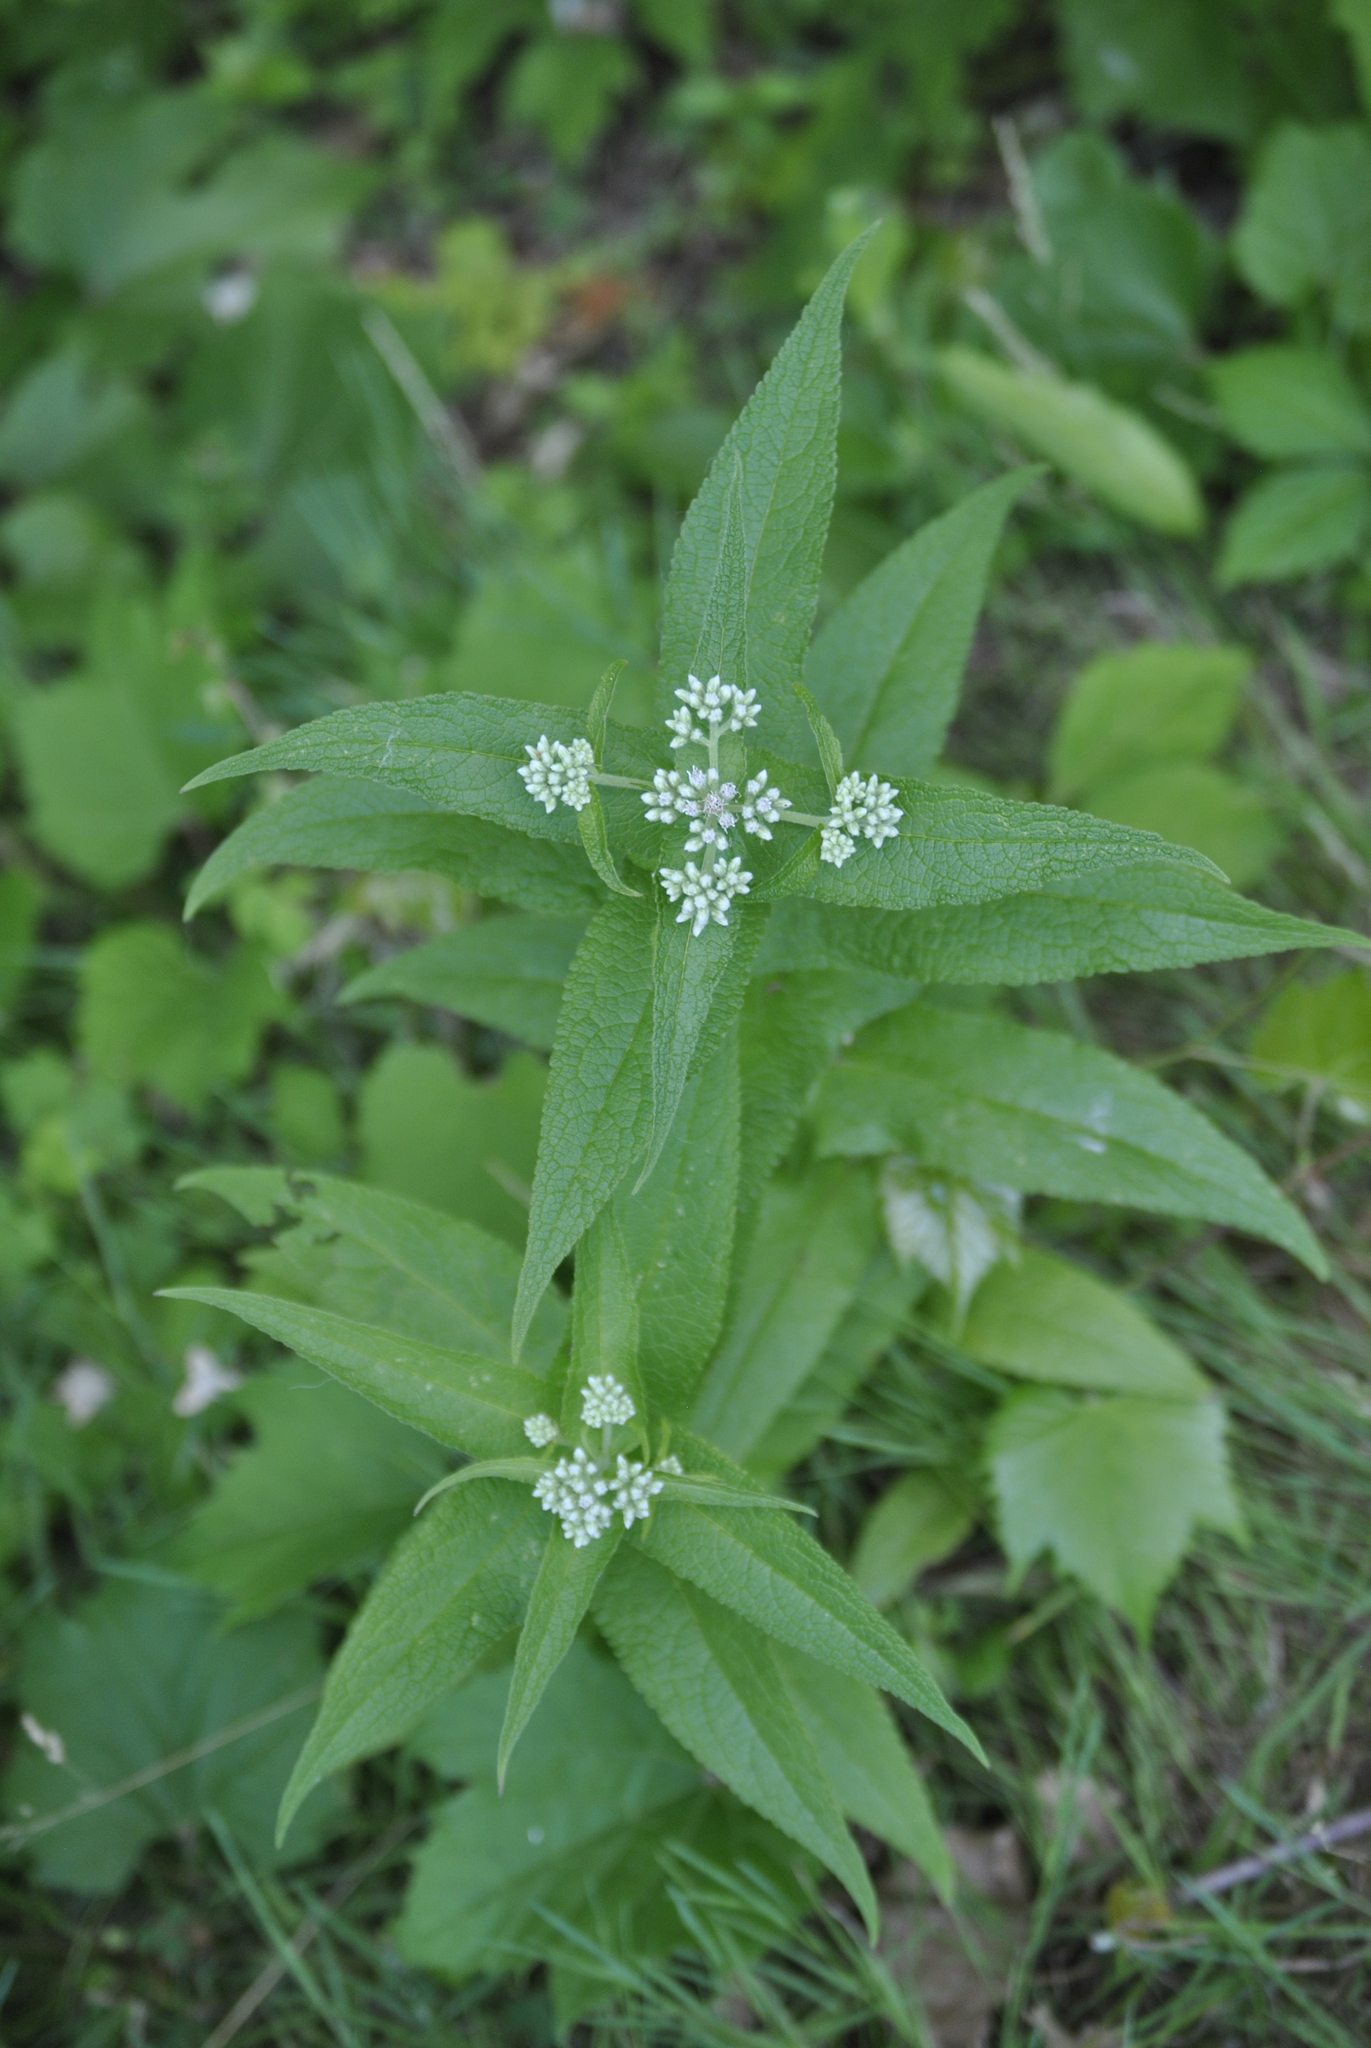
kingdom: Plantae
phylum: Tracheophyta
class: Magnoliopsida
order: Asterales
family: Asteraceae
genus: Eupatorium
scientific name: Eupatorium perfoliatum
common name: Boneset
